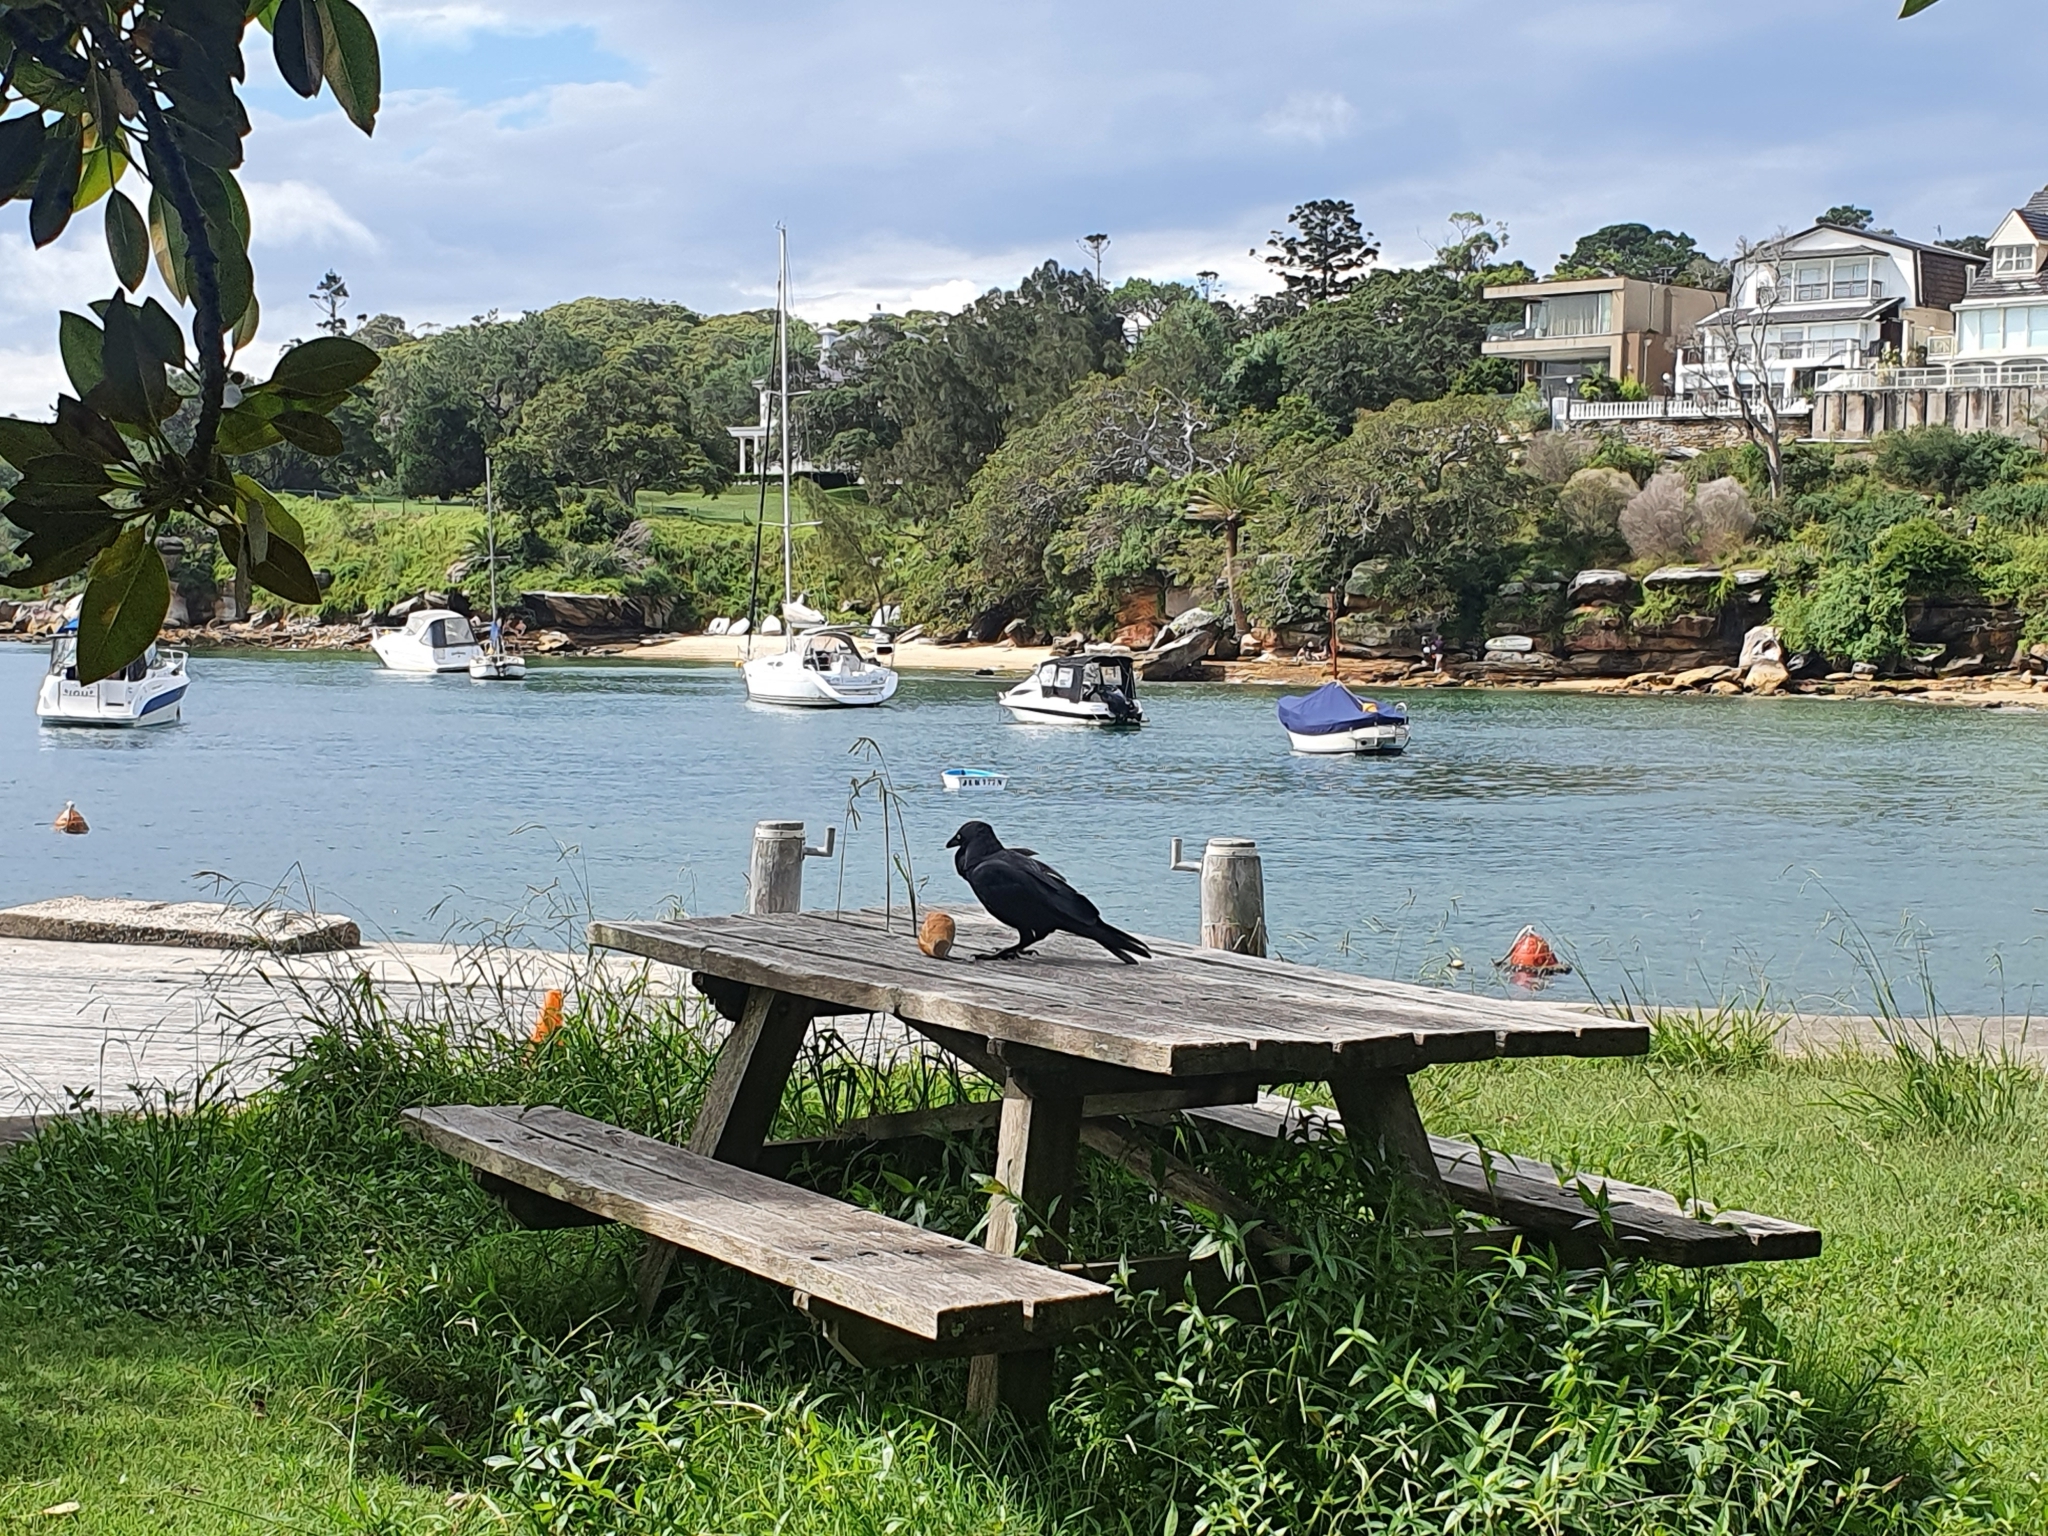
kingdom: Animalia
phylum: Chordata
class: Aves
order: Passeriformes
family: Corvidae
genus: Corvus
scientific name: Corvus coronoides
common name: Australian raven
